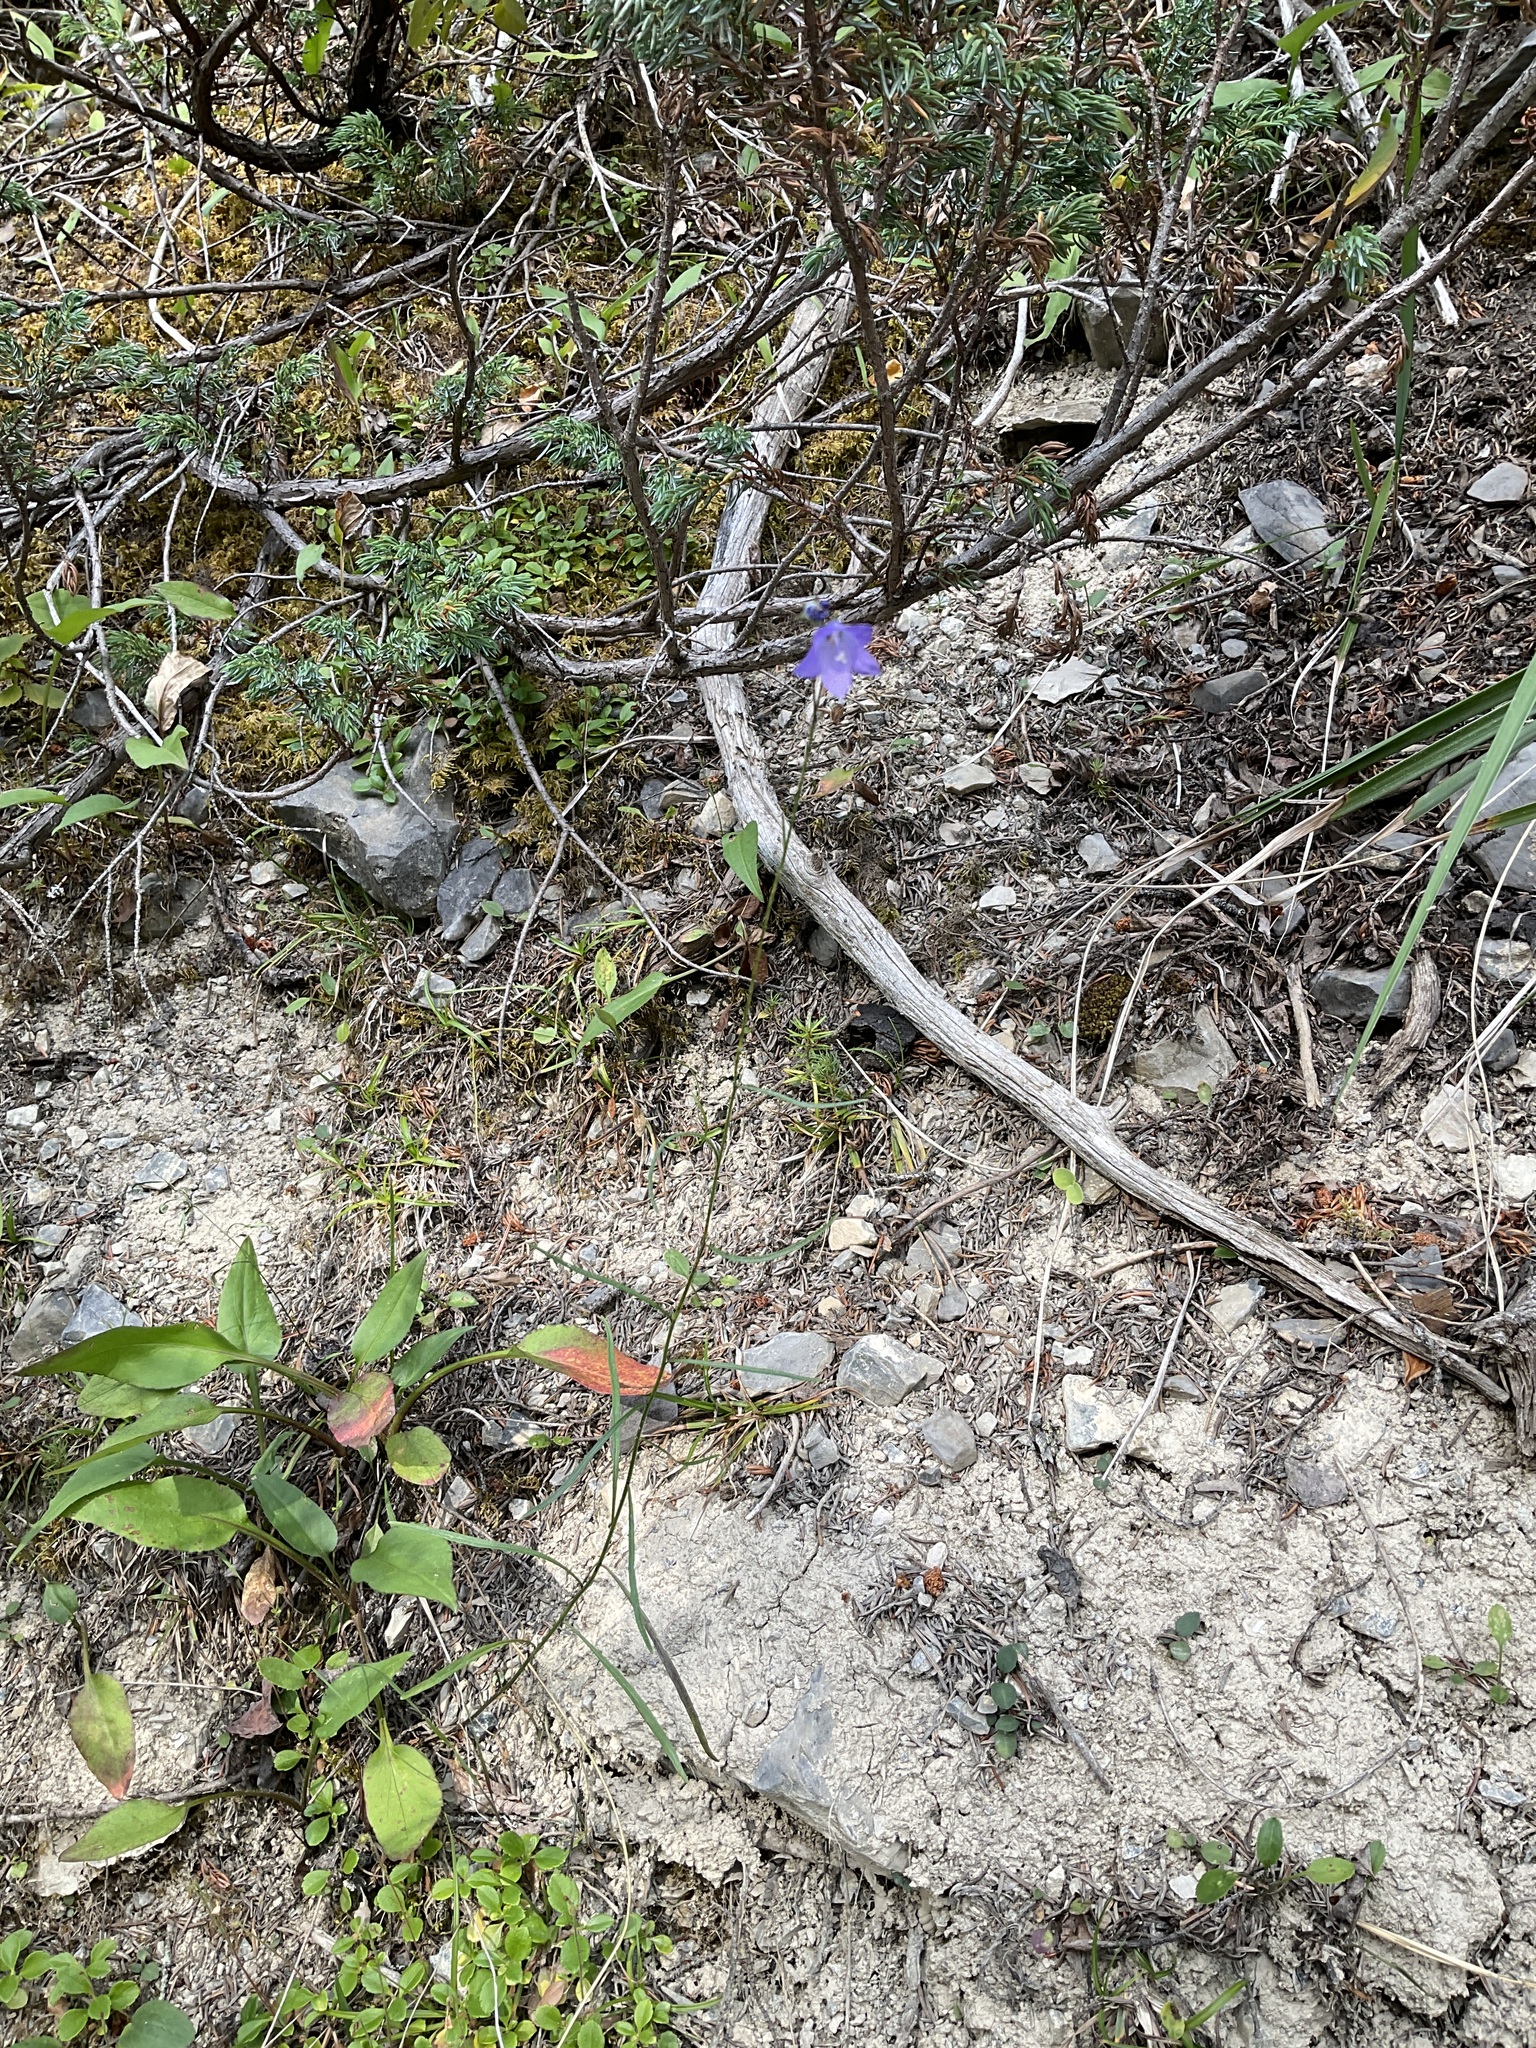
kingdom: Plantae
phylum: Tracheophyta
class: Magnoliopsida
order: Asterales
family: Campanulaceae
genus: Campanula
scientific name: Campanula alaskana
